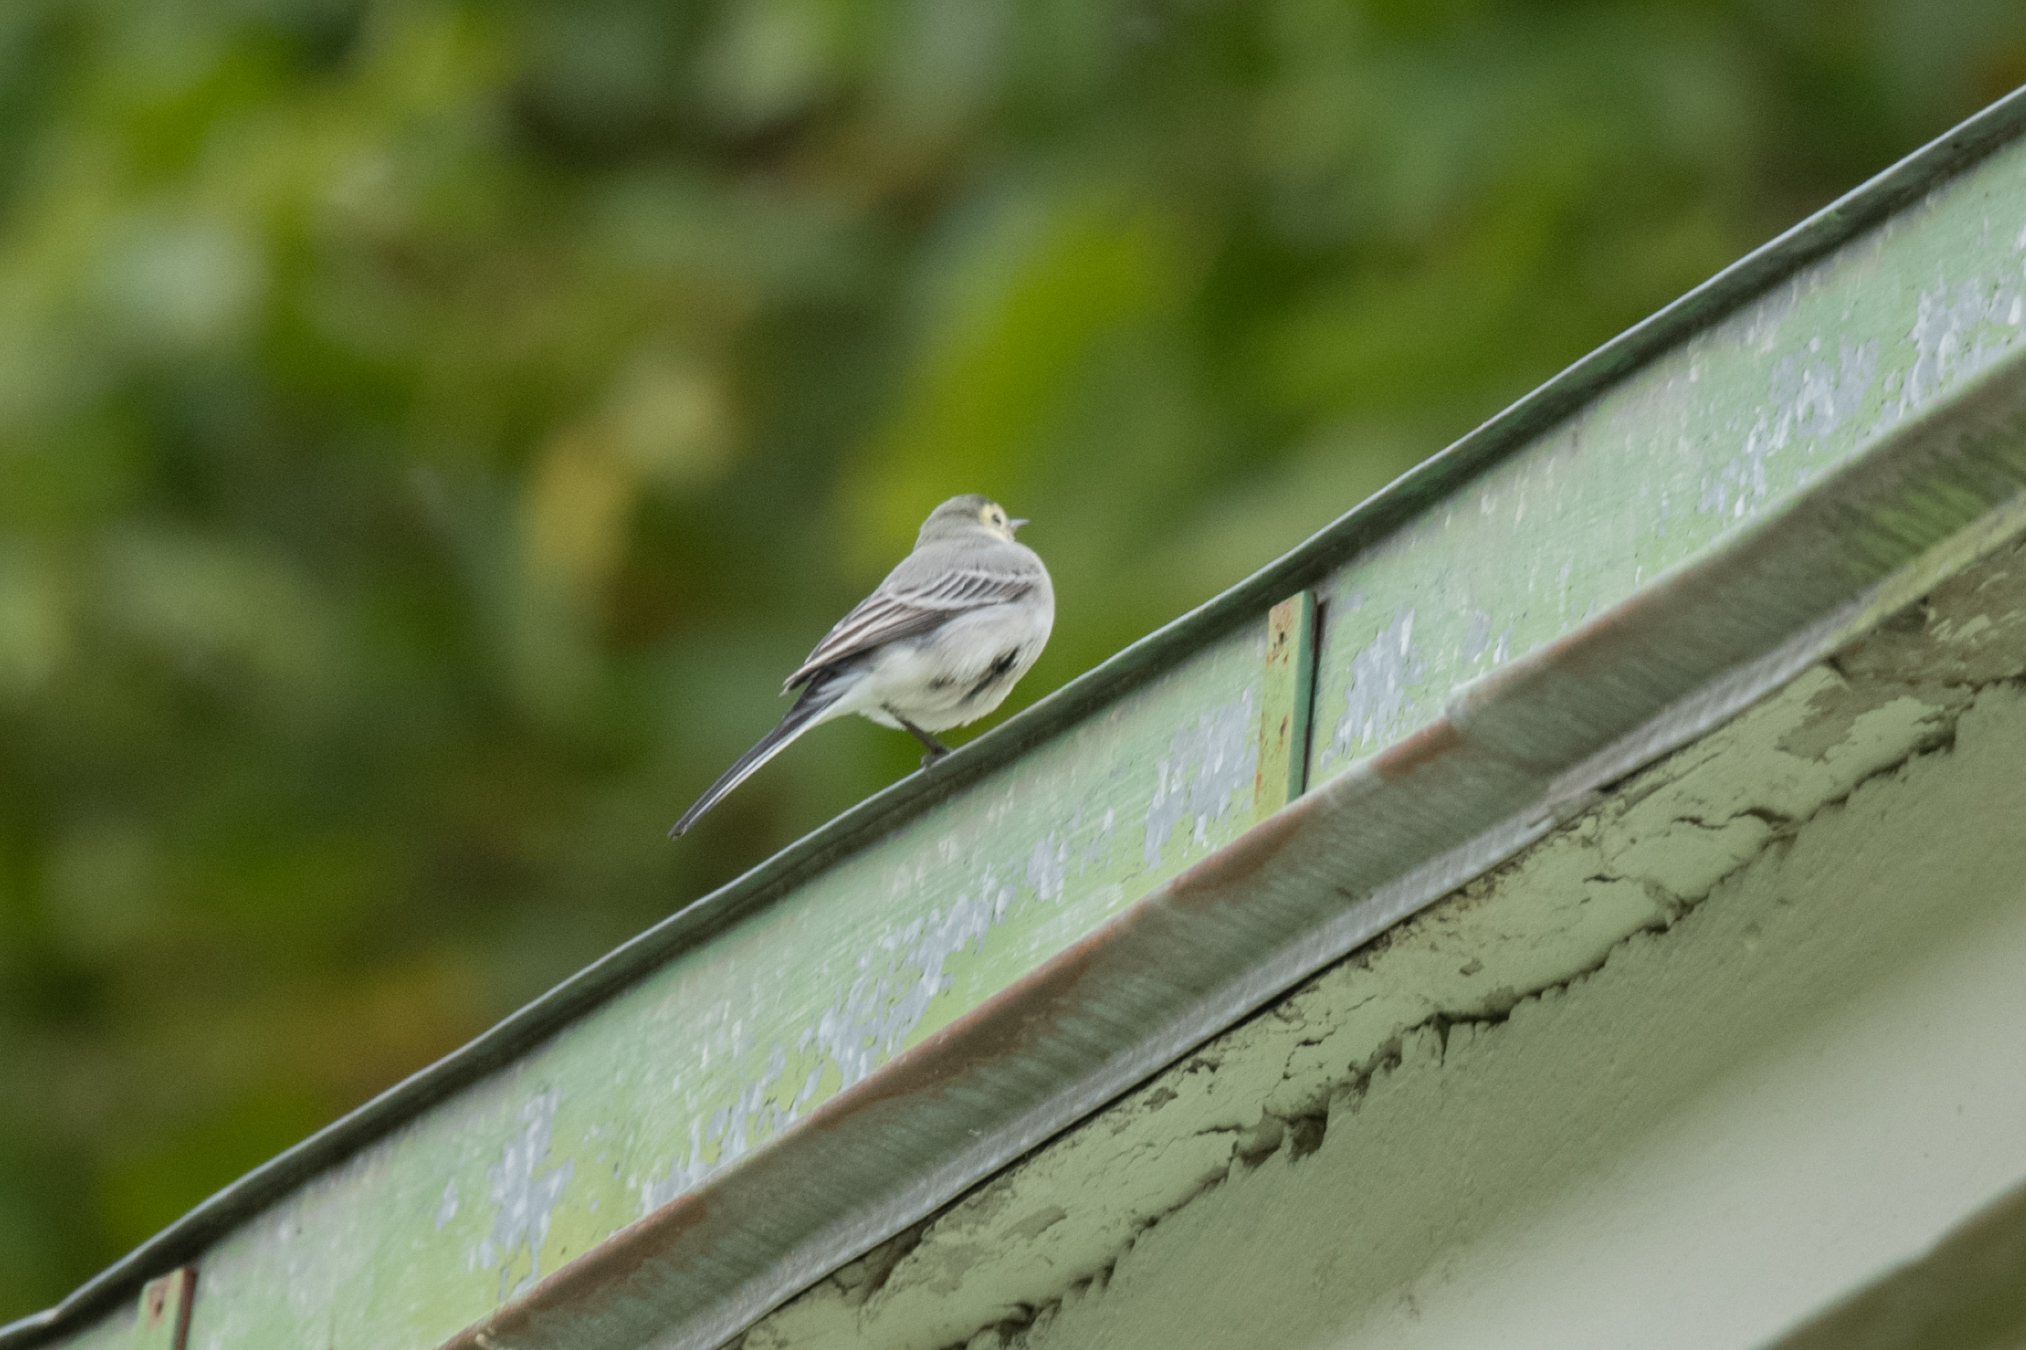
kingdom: Animalia
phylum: Chordata
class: Aves
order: Passeriformes
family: Motacillidae
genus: Motacilla
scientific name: Motacilla alba
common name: White wagtail
